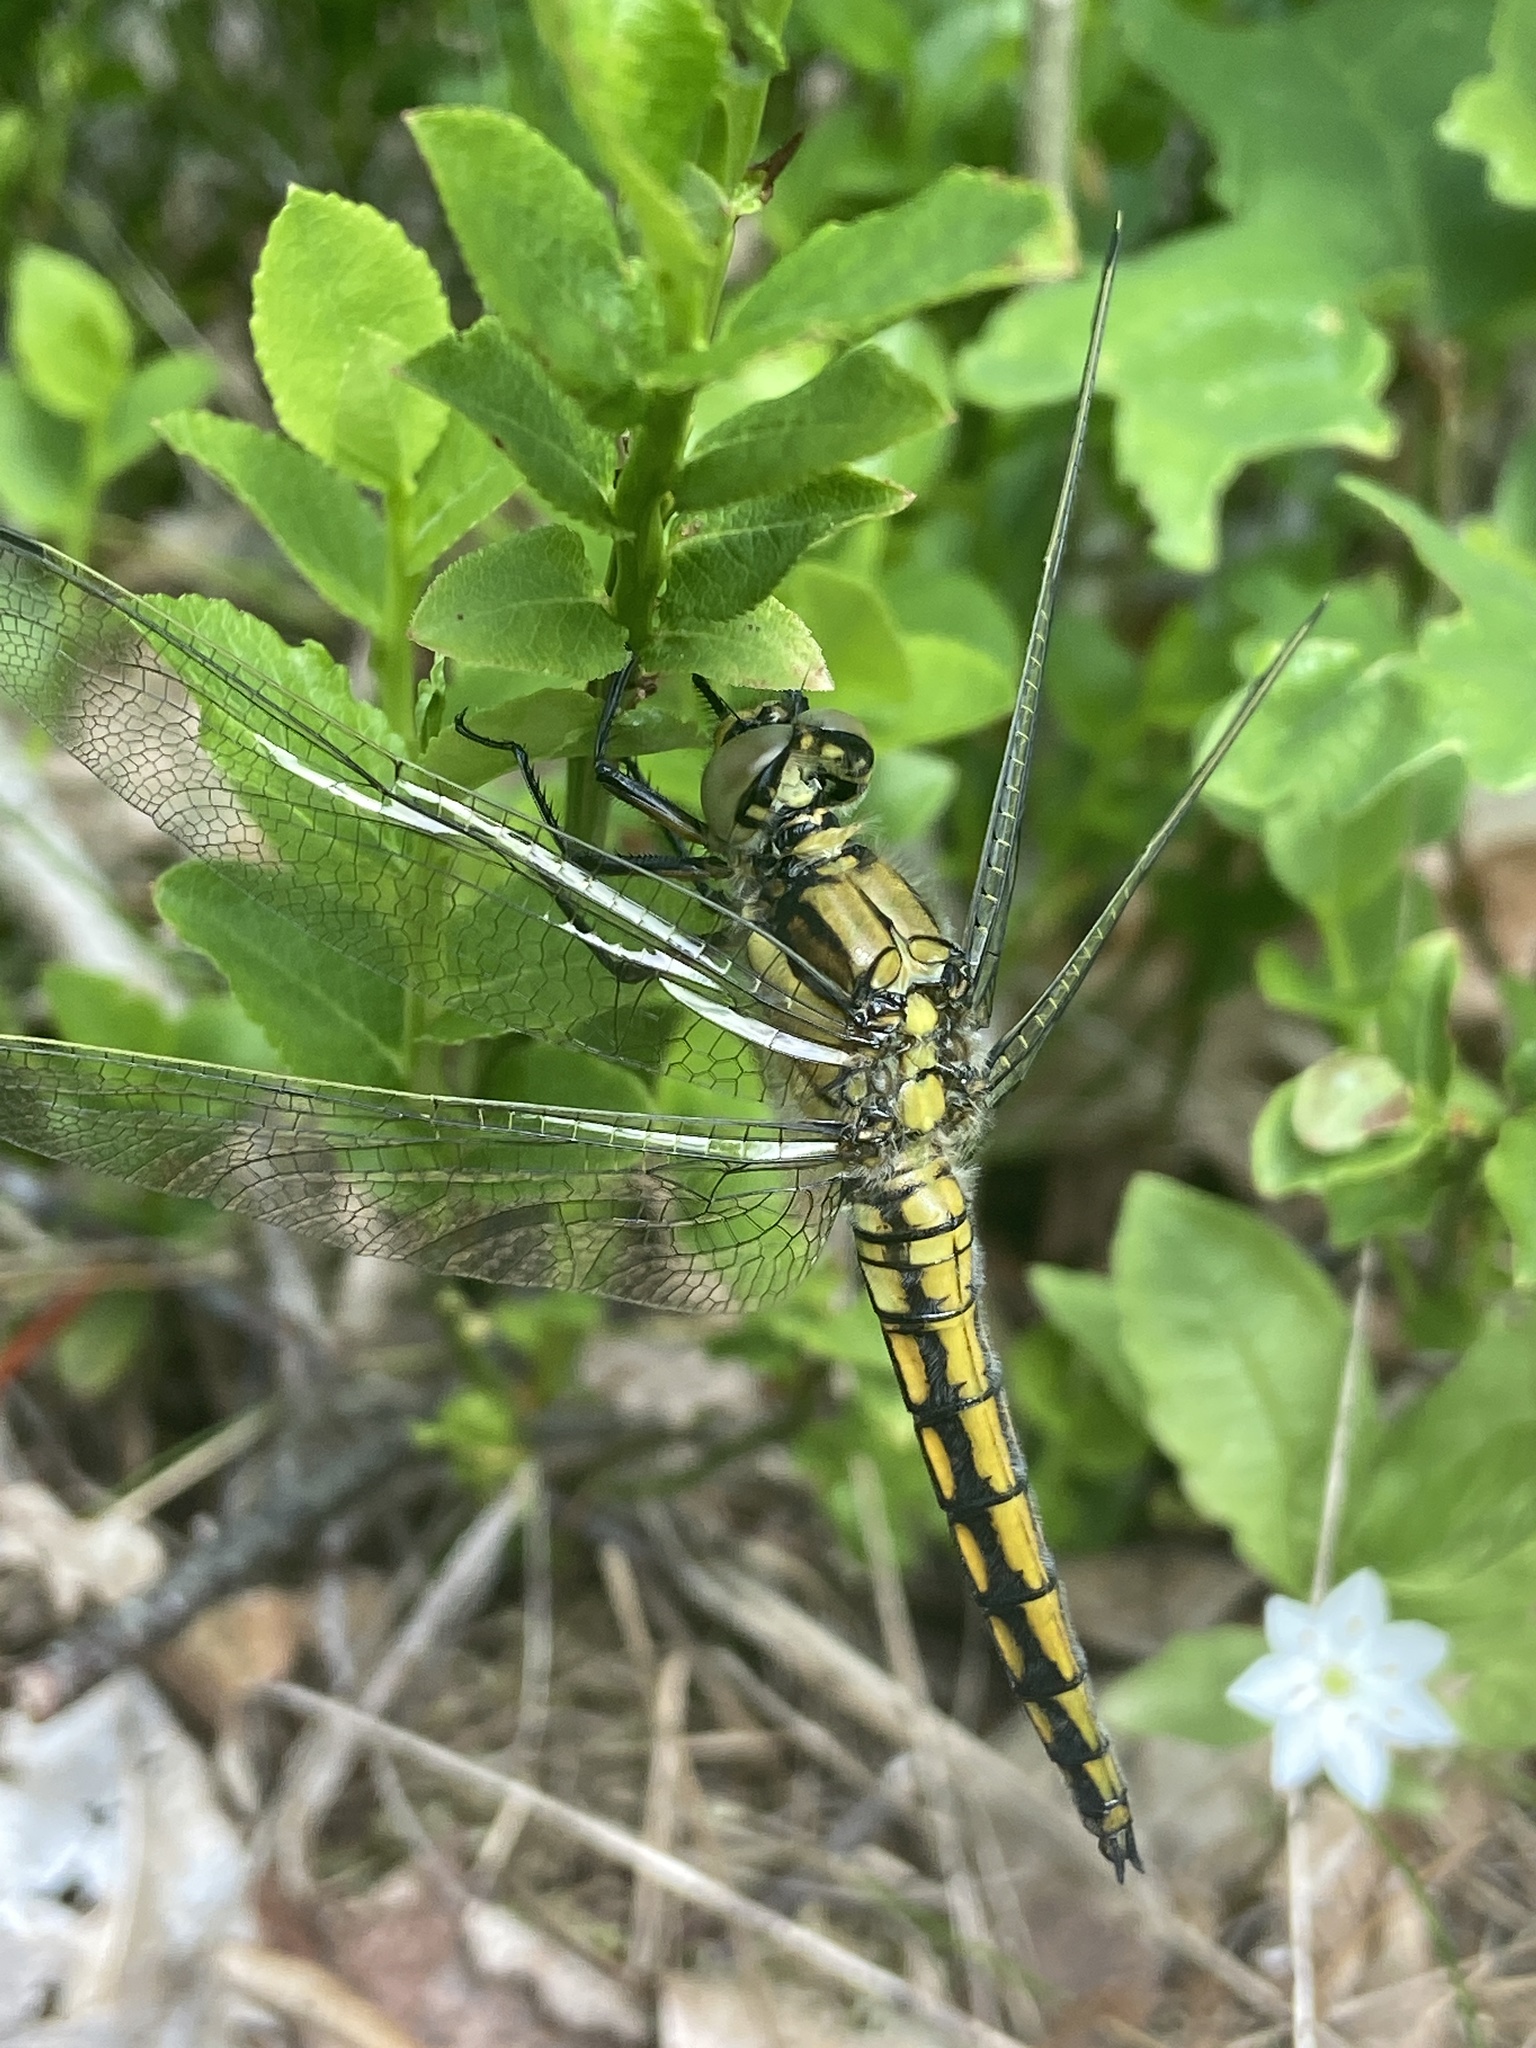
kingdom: Animalia
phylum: Arthropoda
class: Insecta
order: Odonata
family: Libellulidae
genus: Orthetrum
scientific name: Orthetrum cancellatum
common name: Black-tailed skimmer
